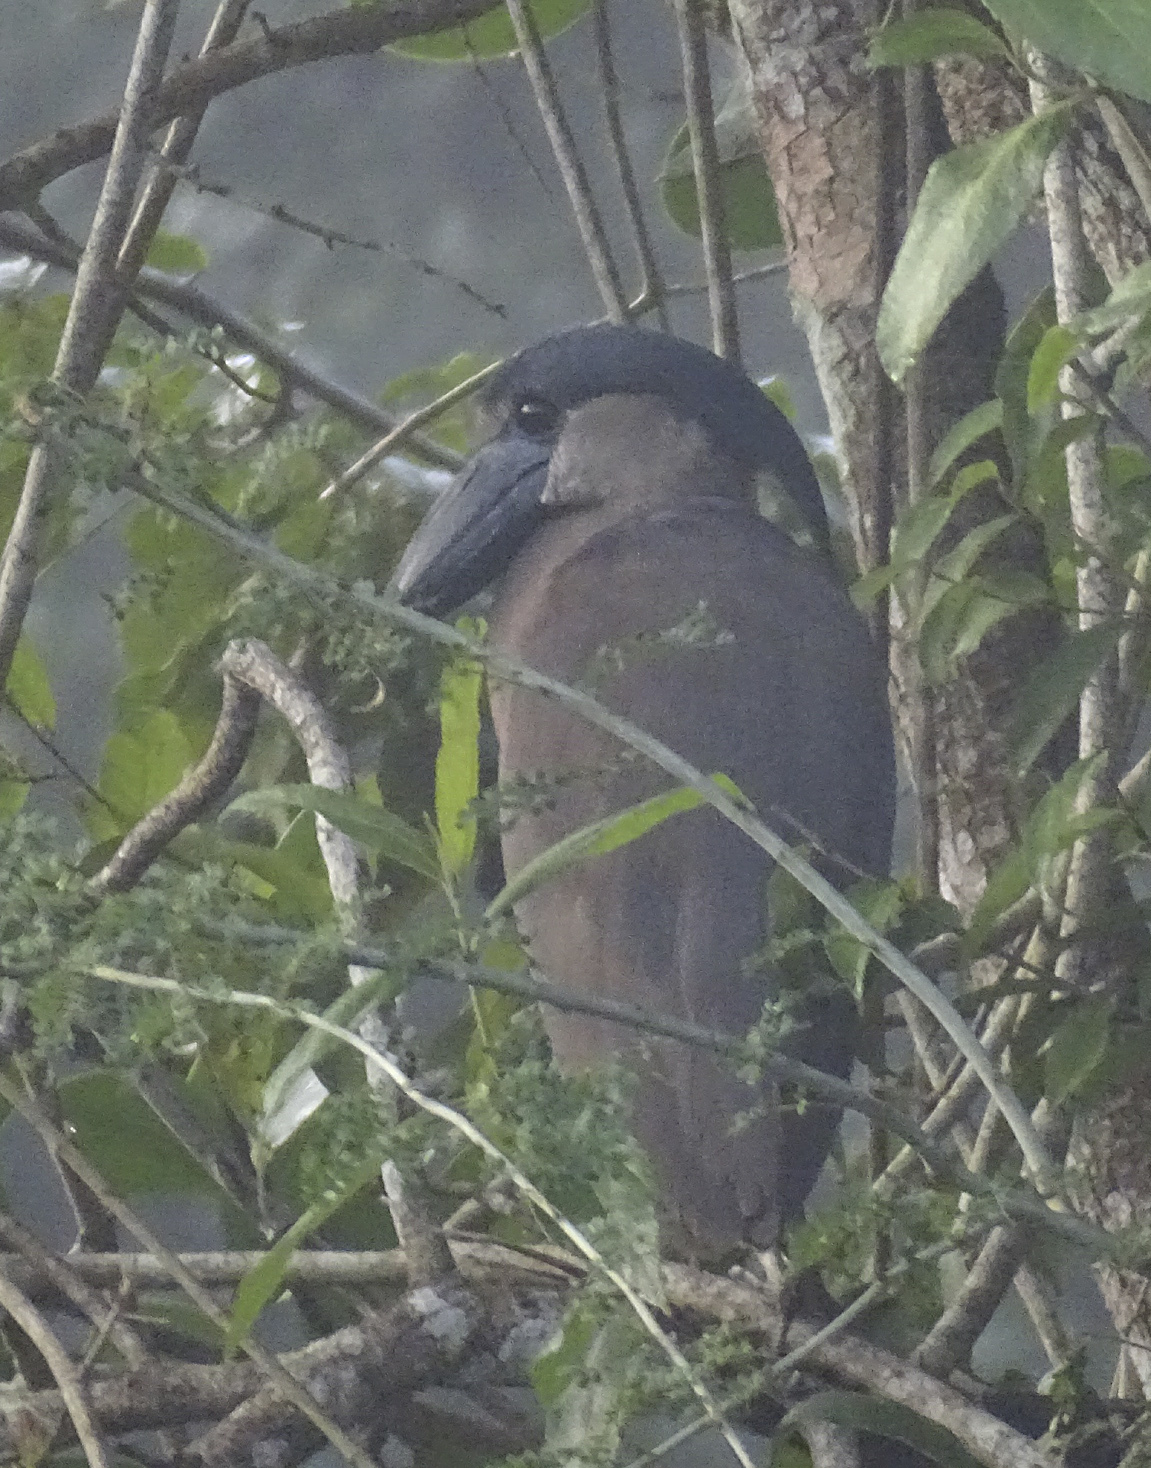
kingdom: Animalia
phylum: Chordata
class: Aves
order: Pelecaniformes
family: Ardeidae
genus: Cochlearius
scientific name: Cochlearius cochlearius
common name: Boat-billed heron
